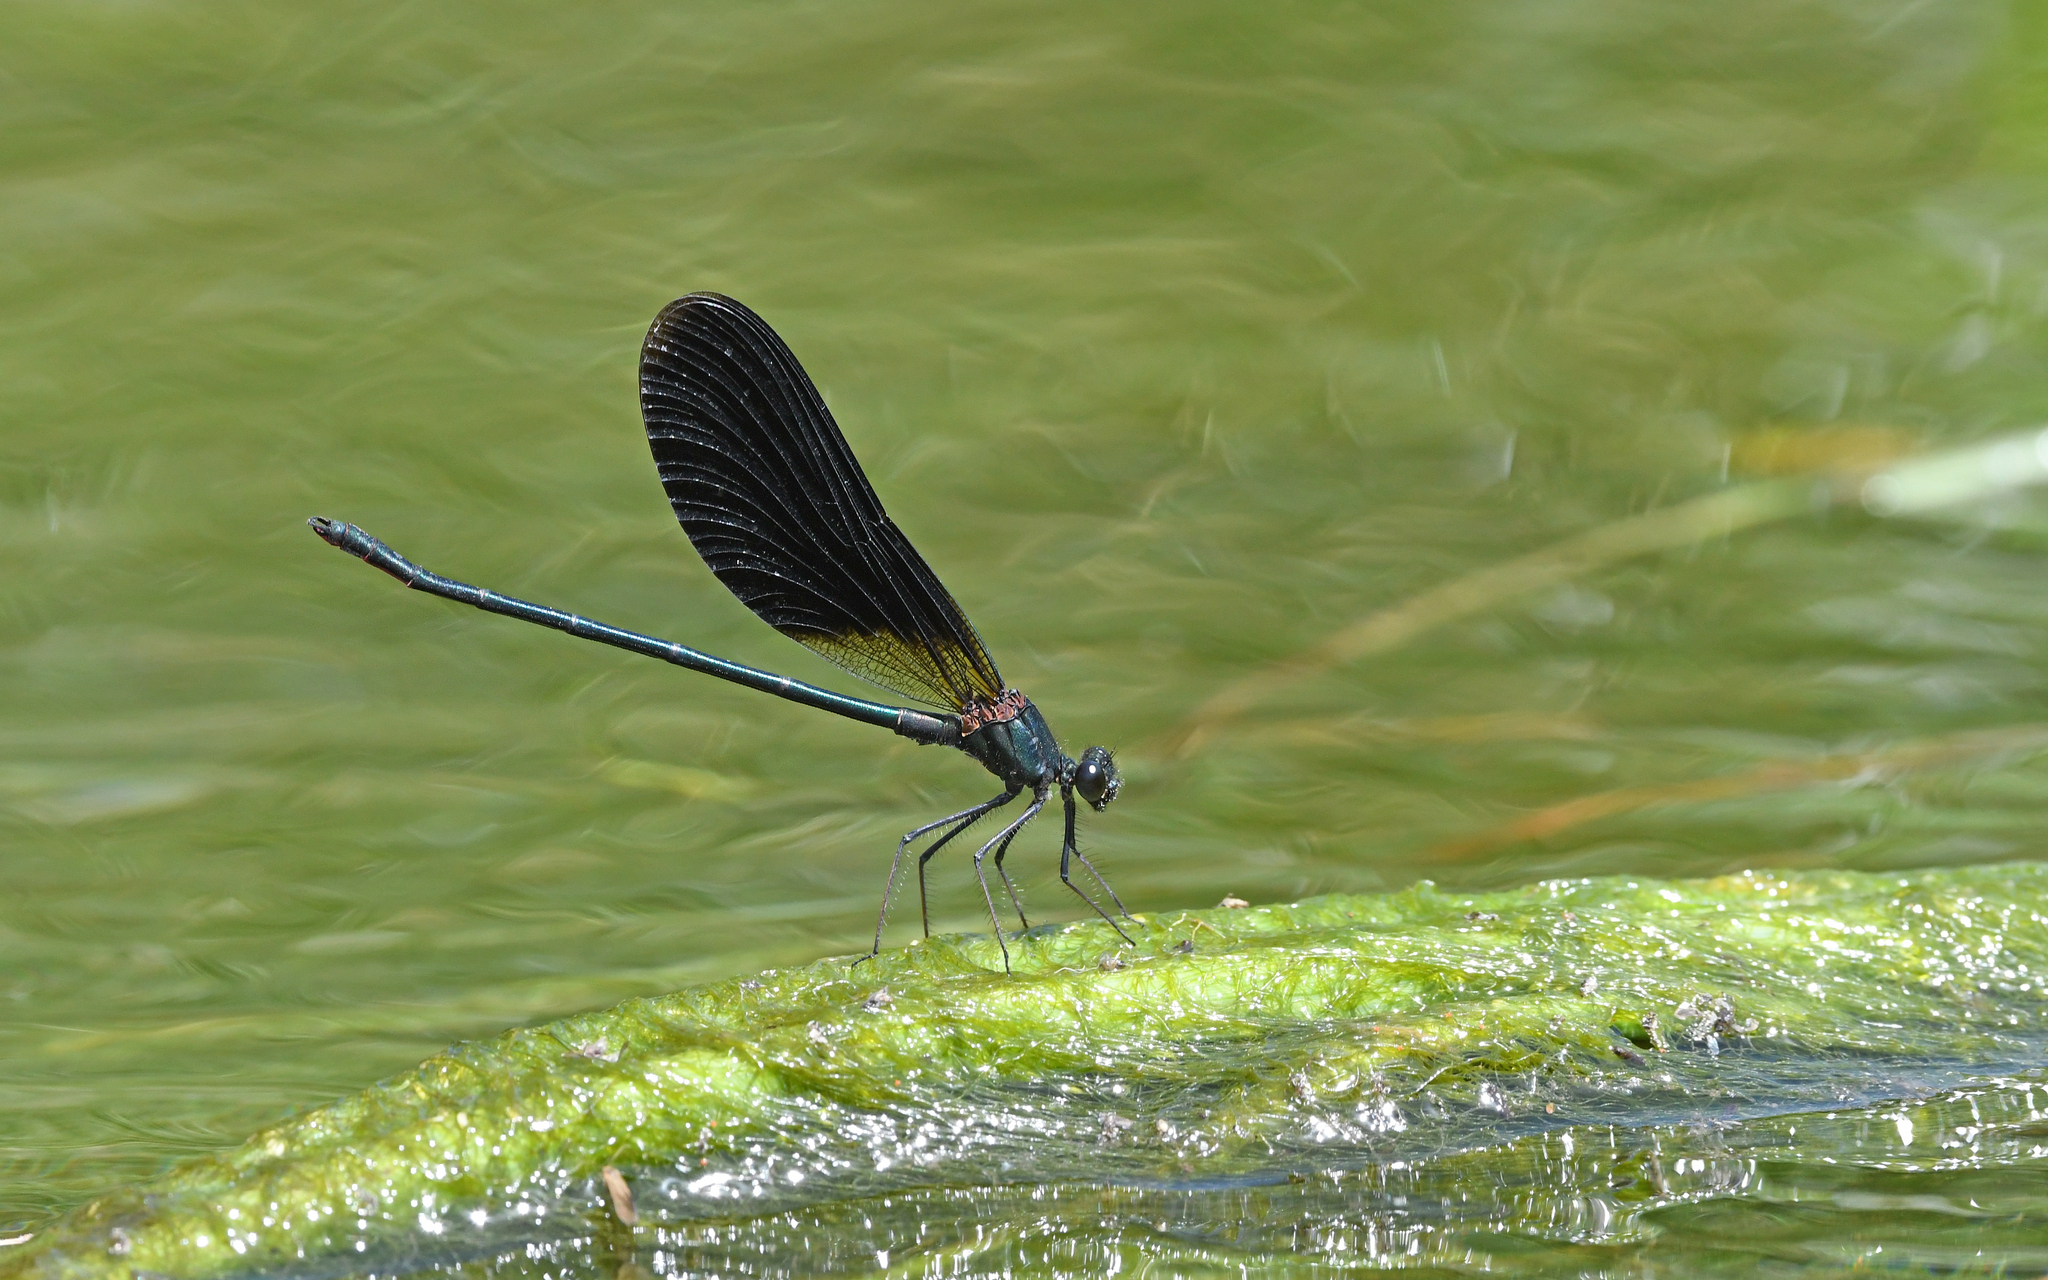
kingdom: Animalia
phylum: Arthropoda
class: Insecta
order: Odonata
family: Calopterygidae
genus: Calopteryx
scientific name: Calopteryx haemorrhoidalis
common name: Copper demoiselle
